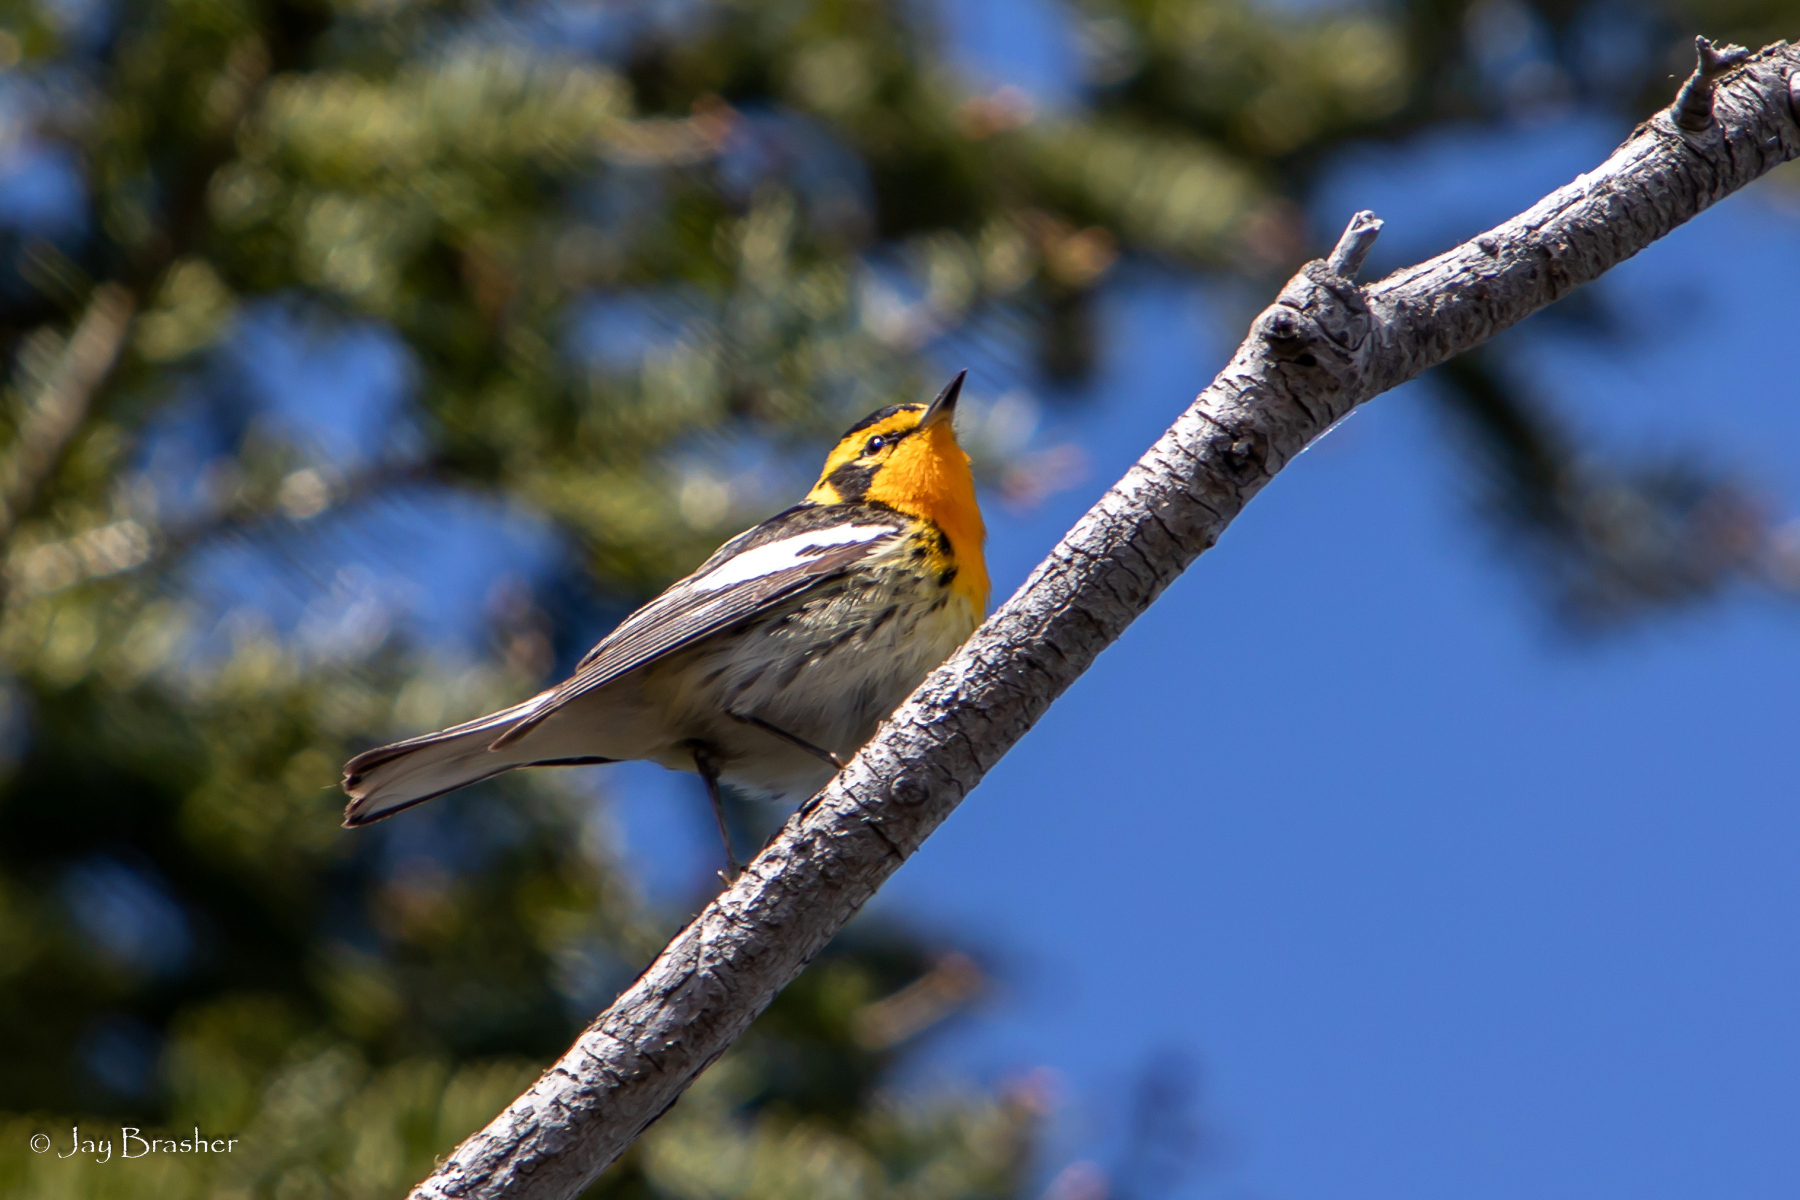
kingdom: Animalia
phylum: Chordata
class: Aves
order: Passeriformes
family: Parulidae
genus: Setophaga
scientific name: Setophaga fusca
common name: Blackburnian warbler
